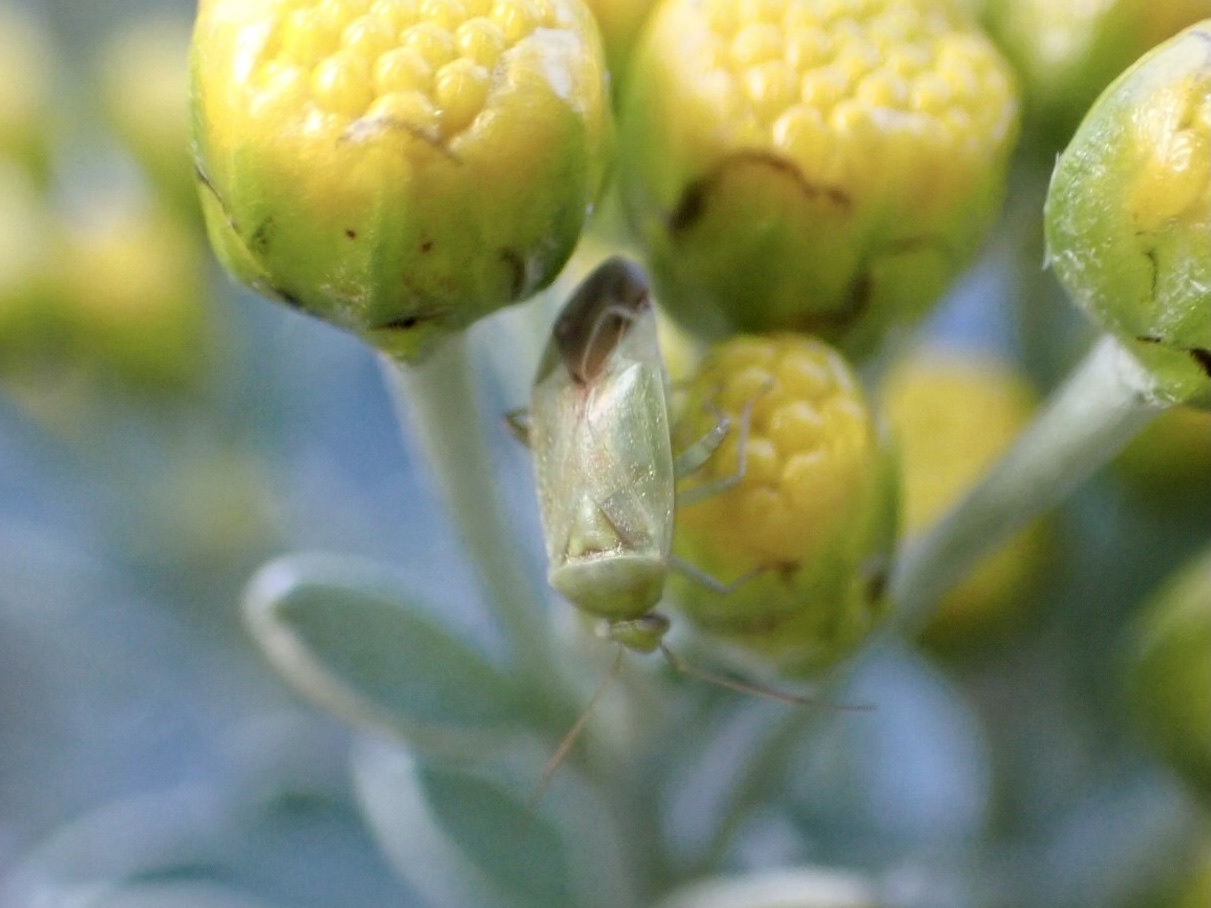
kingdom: Animalia
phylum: Arthropoda
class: Insecta
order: Hemiptera
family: Miridae
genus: Taylorilygus
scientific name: Taylorilygus apicalis
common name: Plant bug
